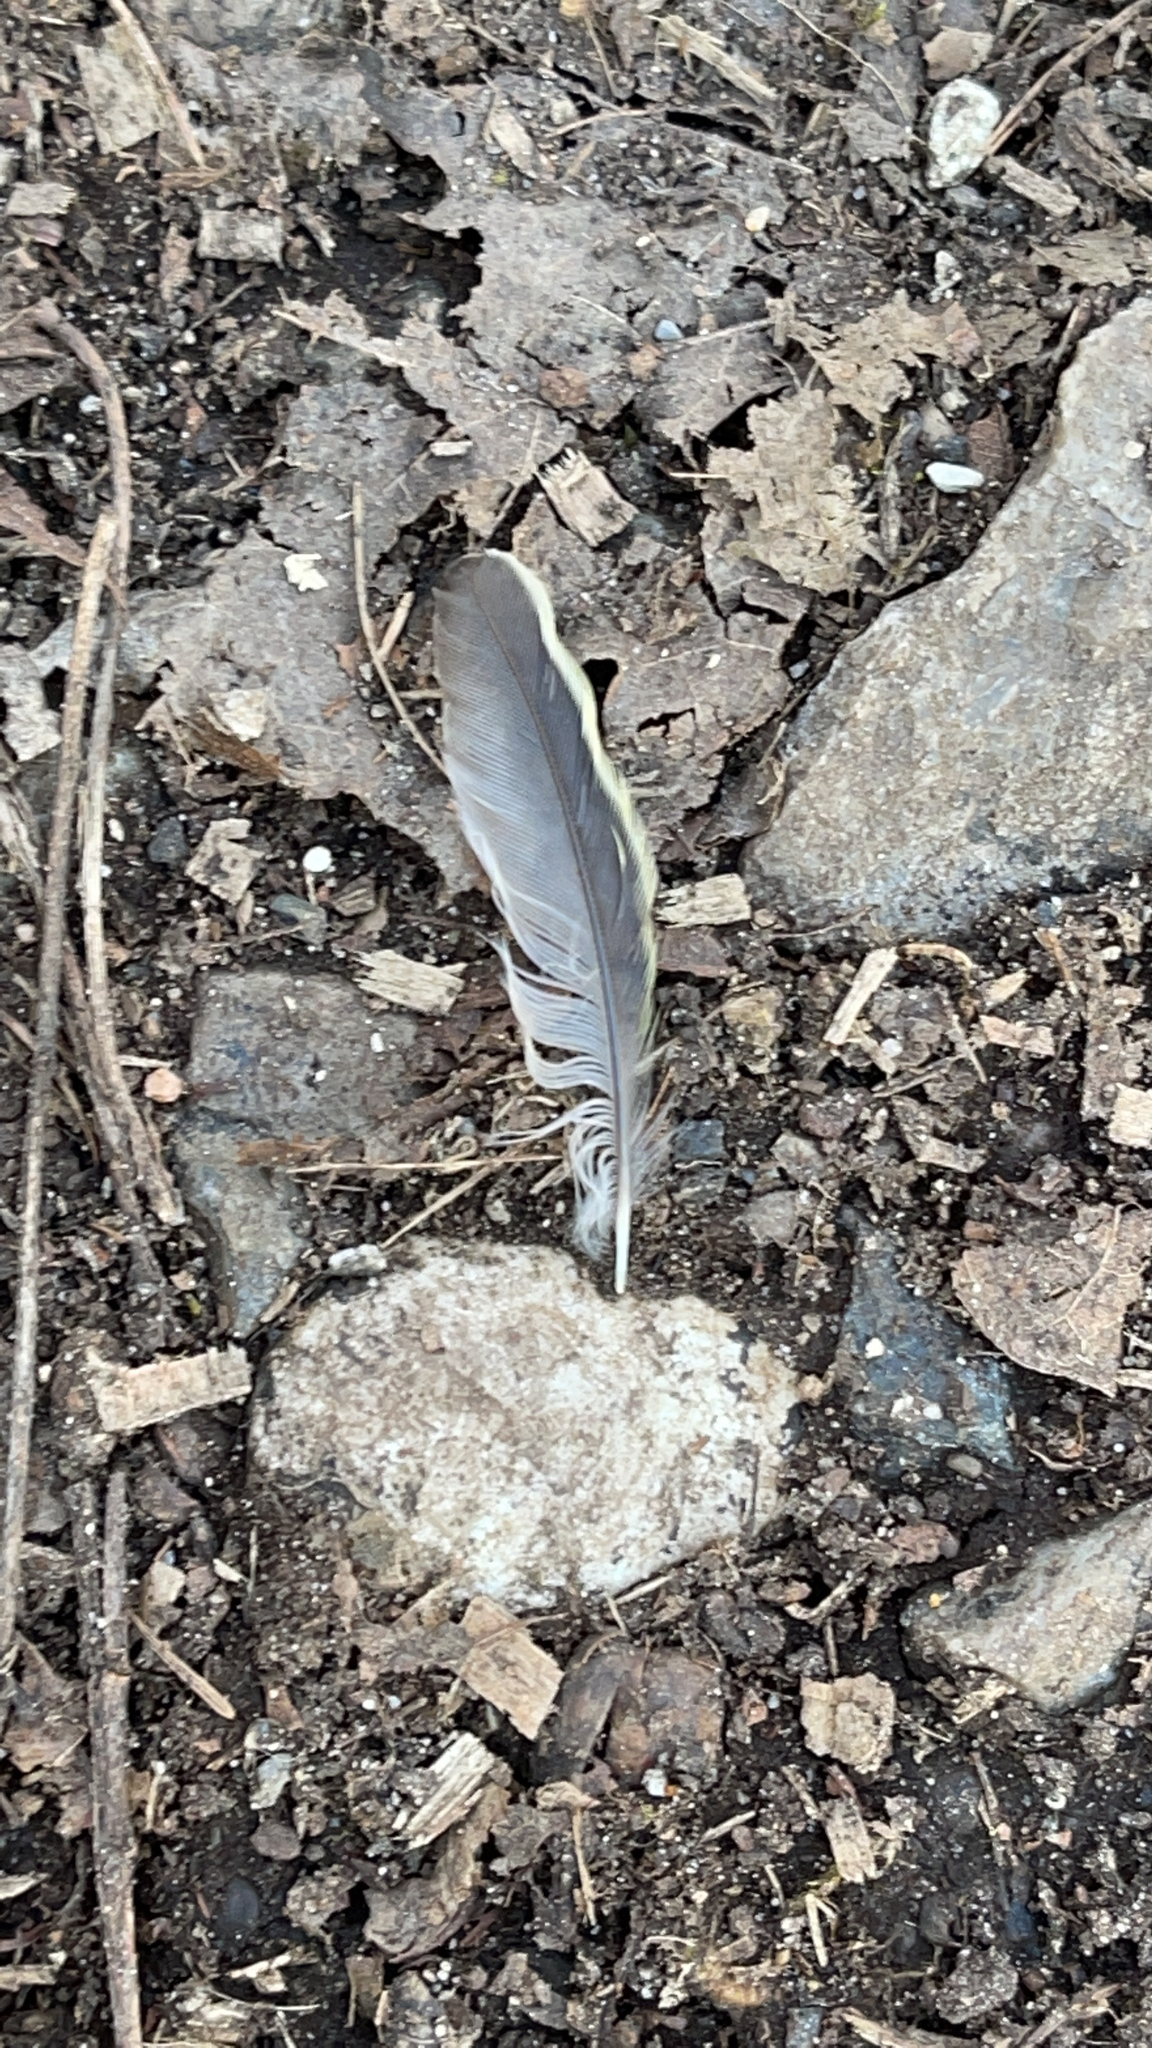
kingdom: Animalia
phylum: Chordata
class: Aves
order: Passeriformes
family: Paridae
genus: Parus
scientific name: Parus major
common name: Great tit
